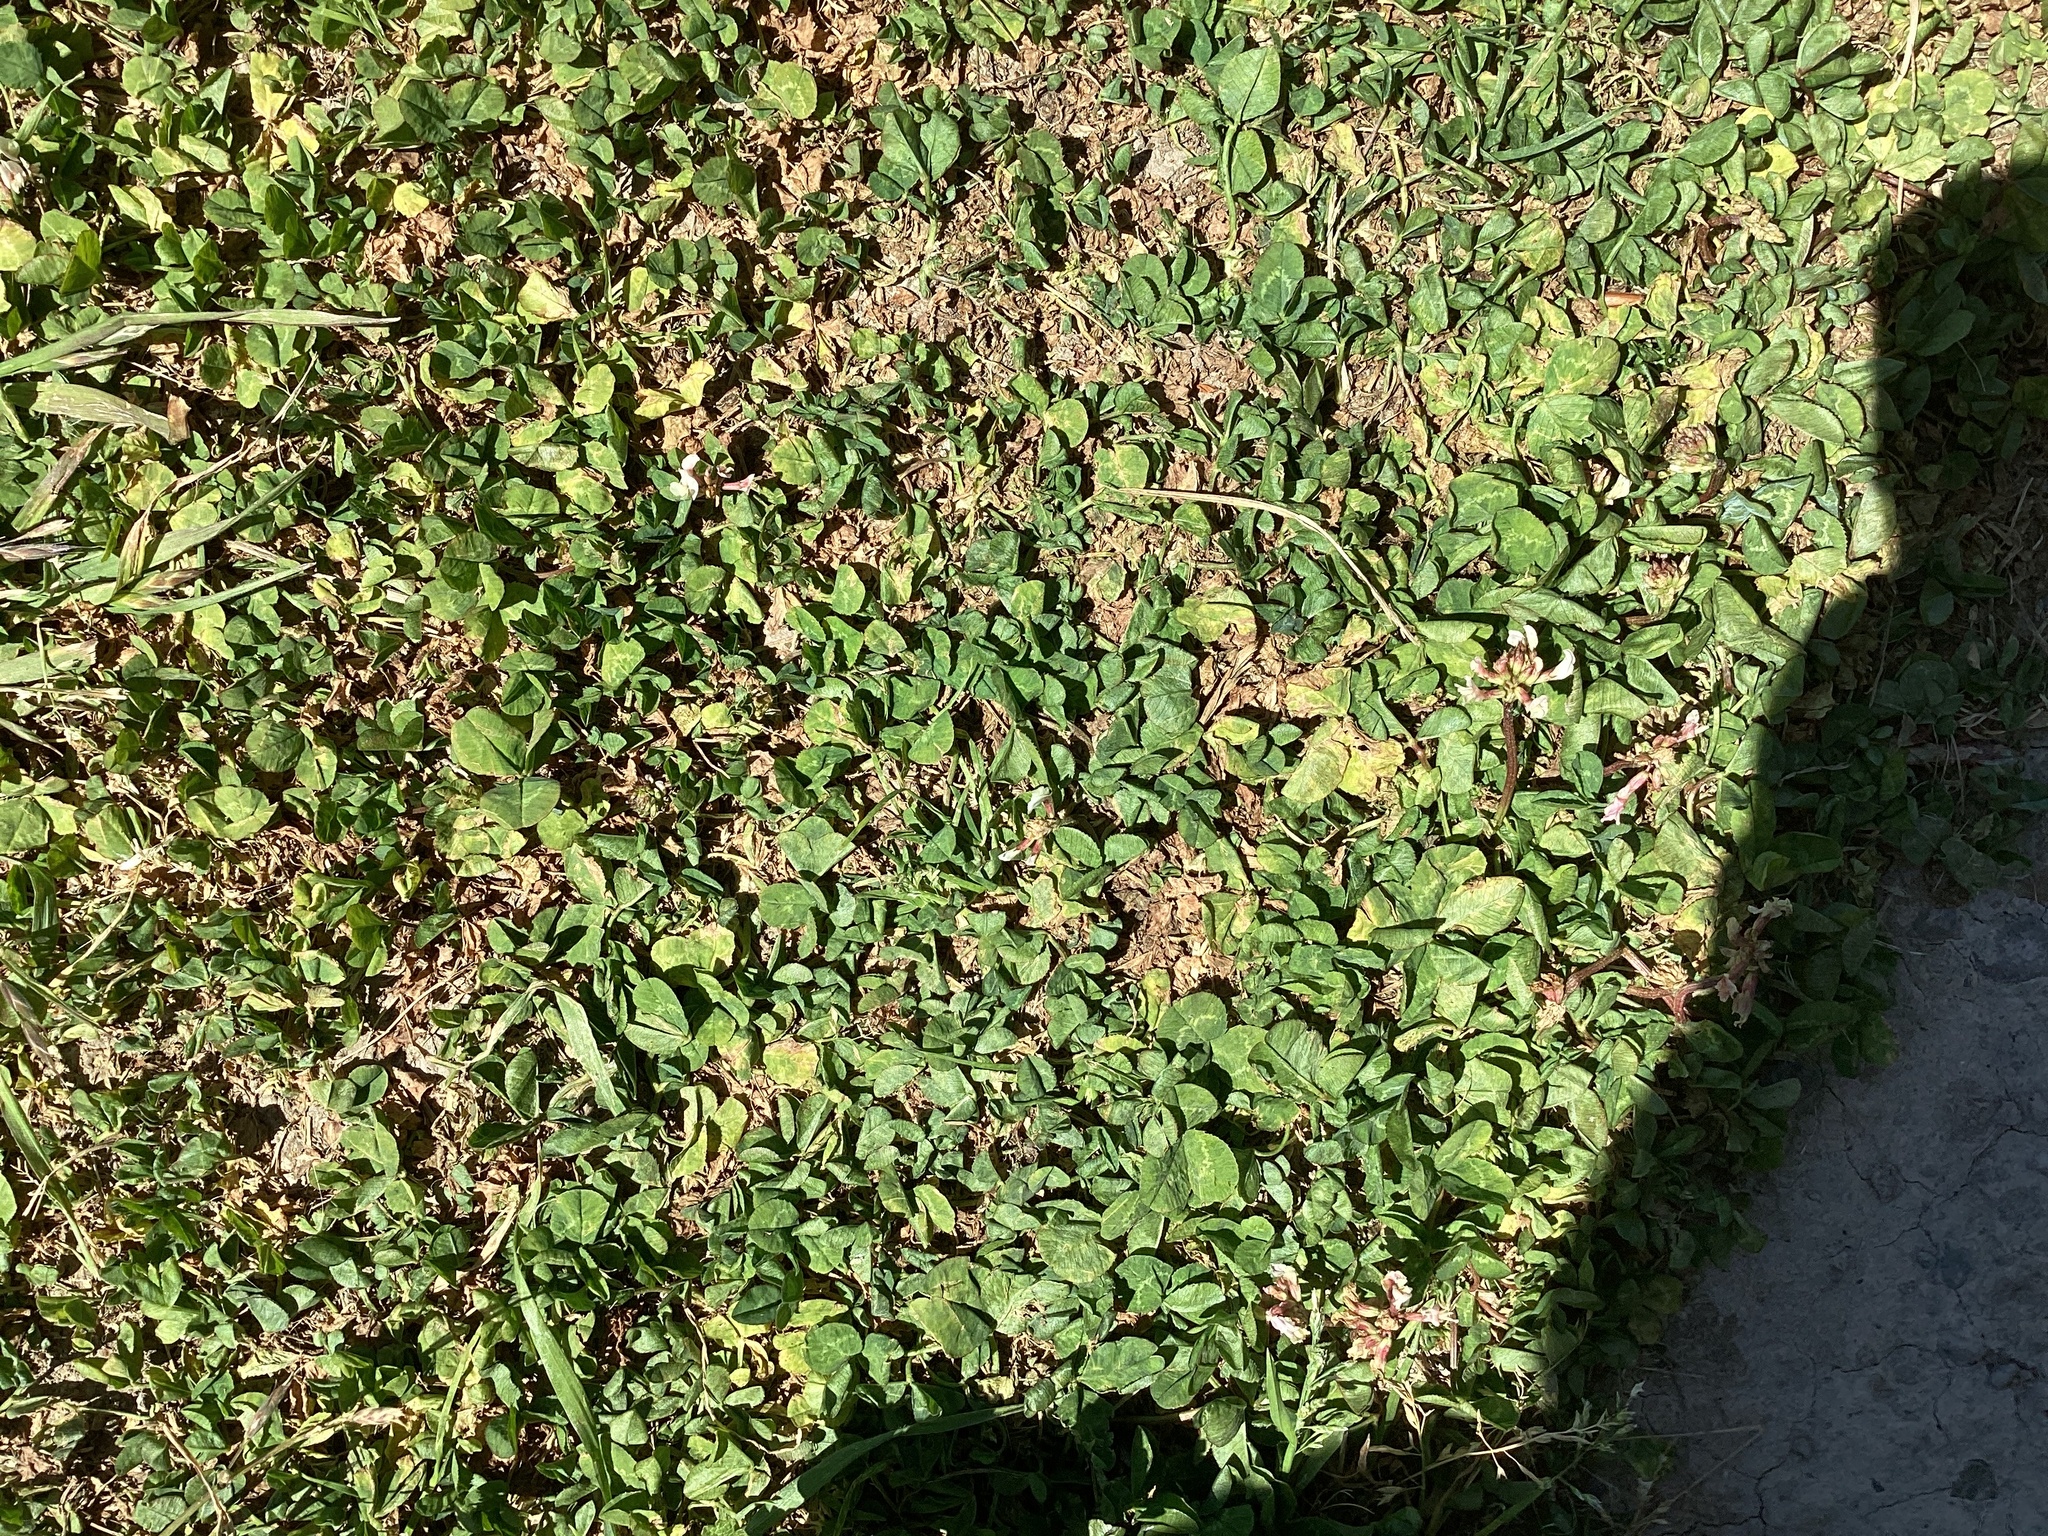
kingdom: Plantae
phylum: Tracheophyta
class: Magnoliopsida
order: Fabales
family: Fabaceae
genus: Trifolium
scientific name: Trifolium repens
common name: White clover
